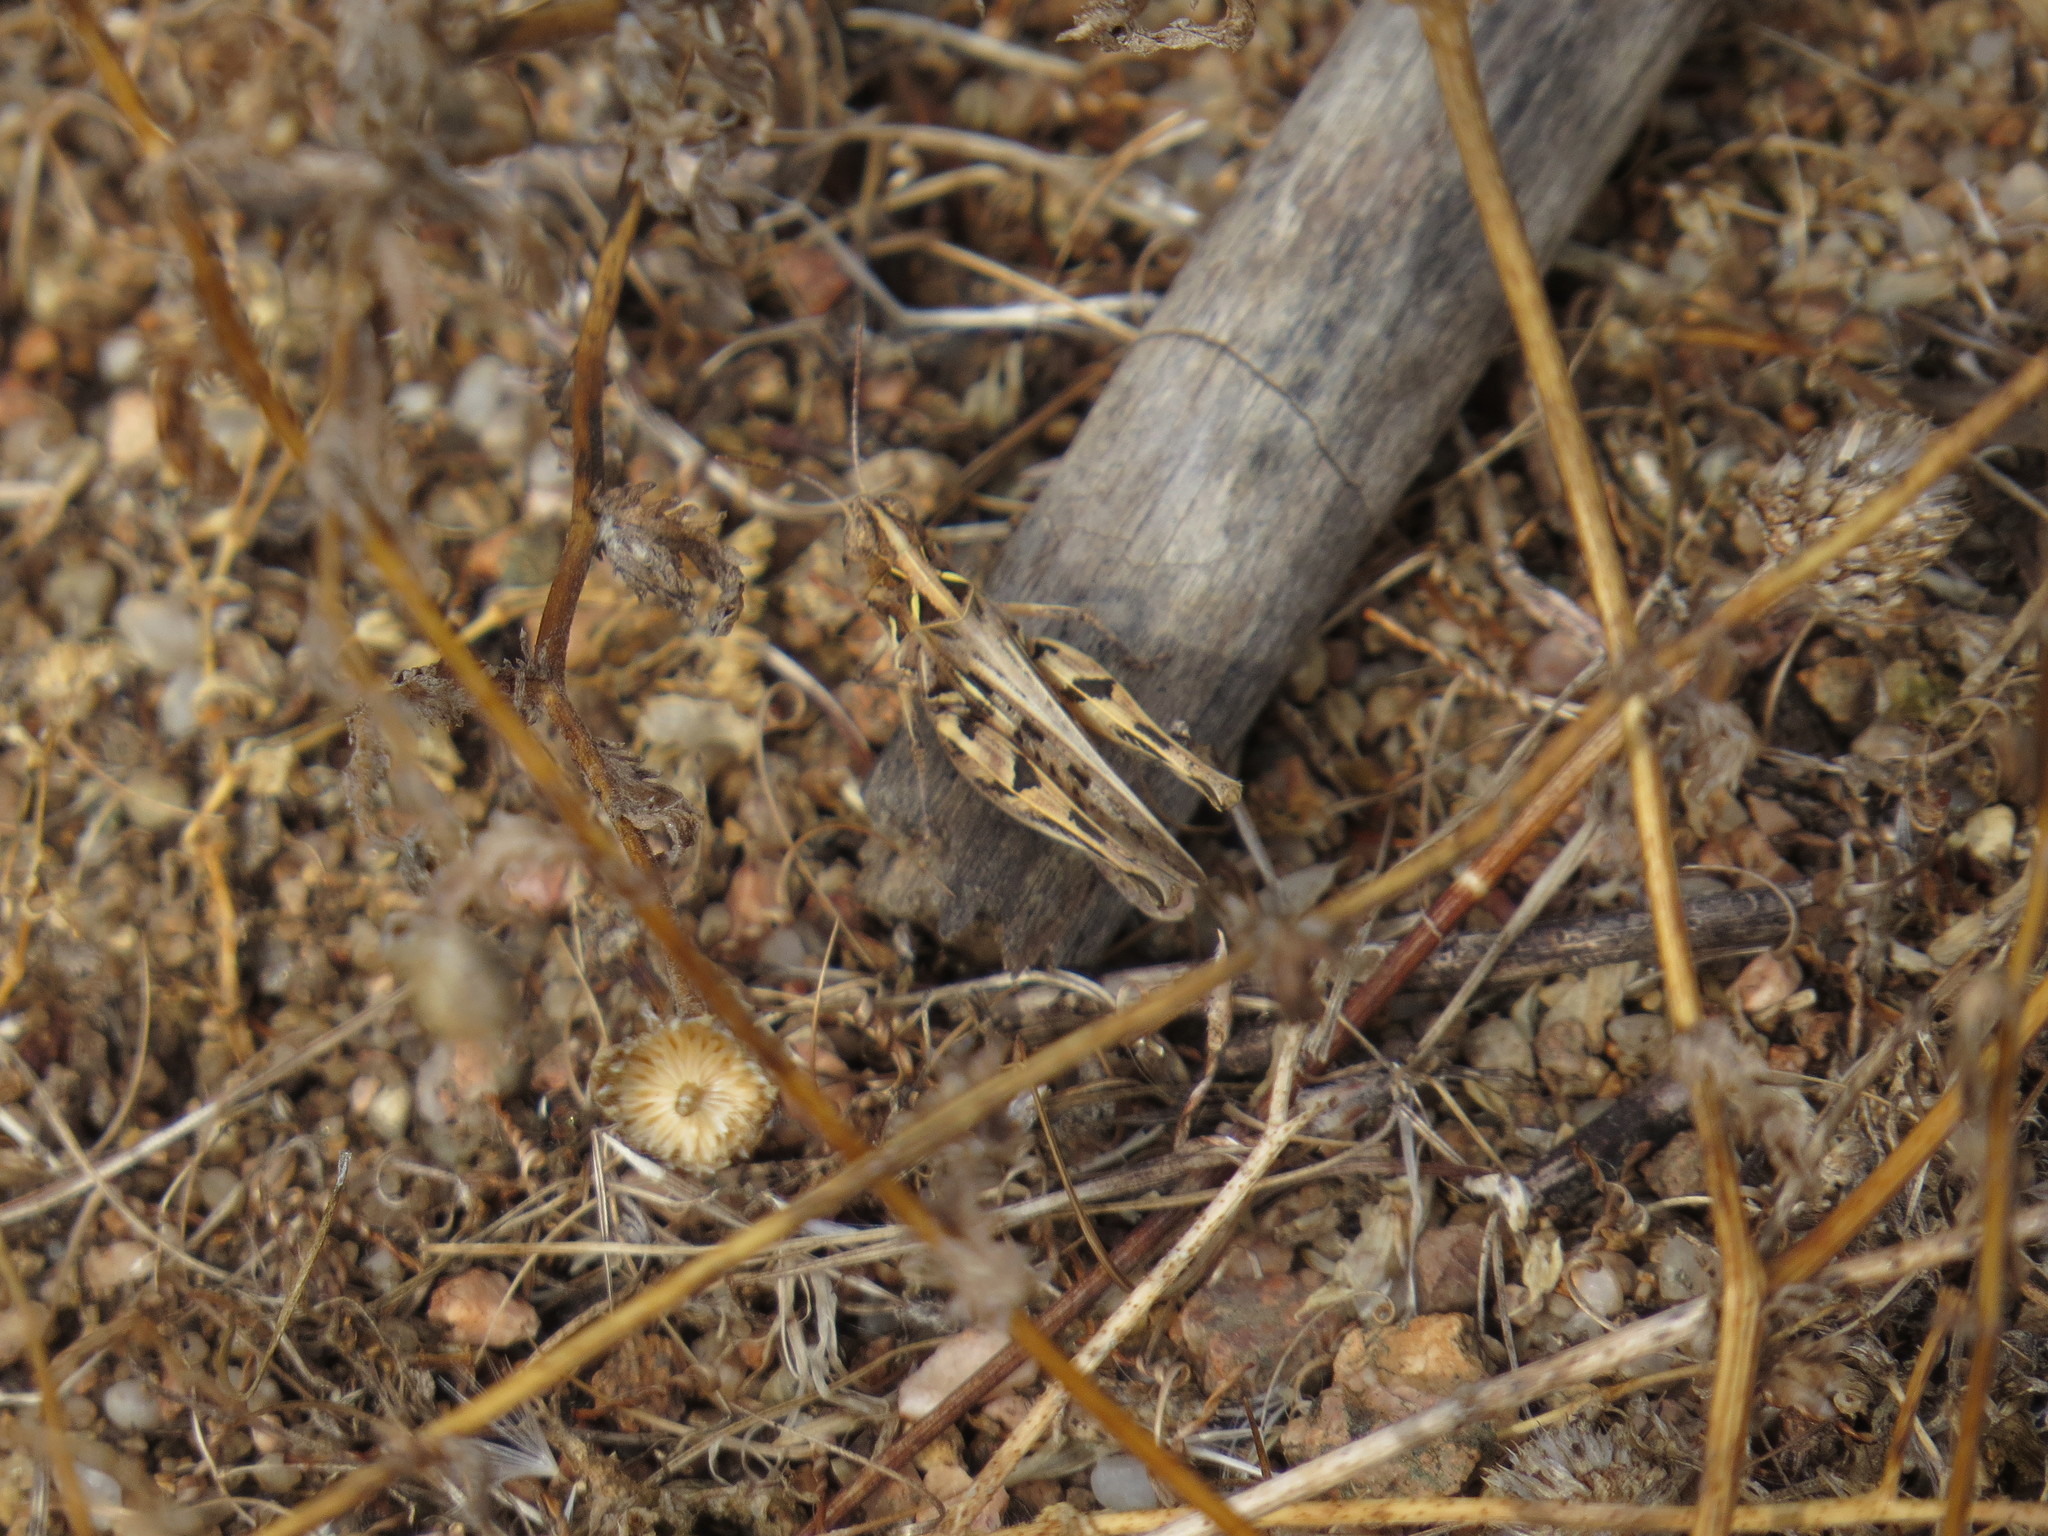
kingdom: Animalia
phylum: Arthropoda
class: Insecta
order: Orthoptera
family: Acrididae
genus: Dociostaurus
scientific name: Dociostaurus jagoi
